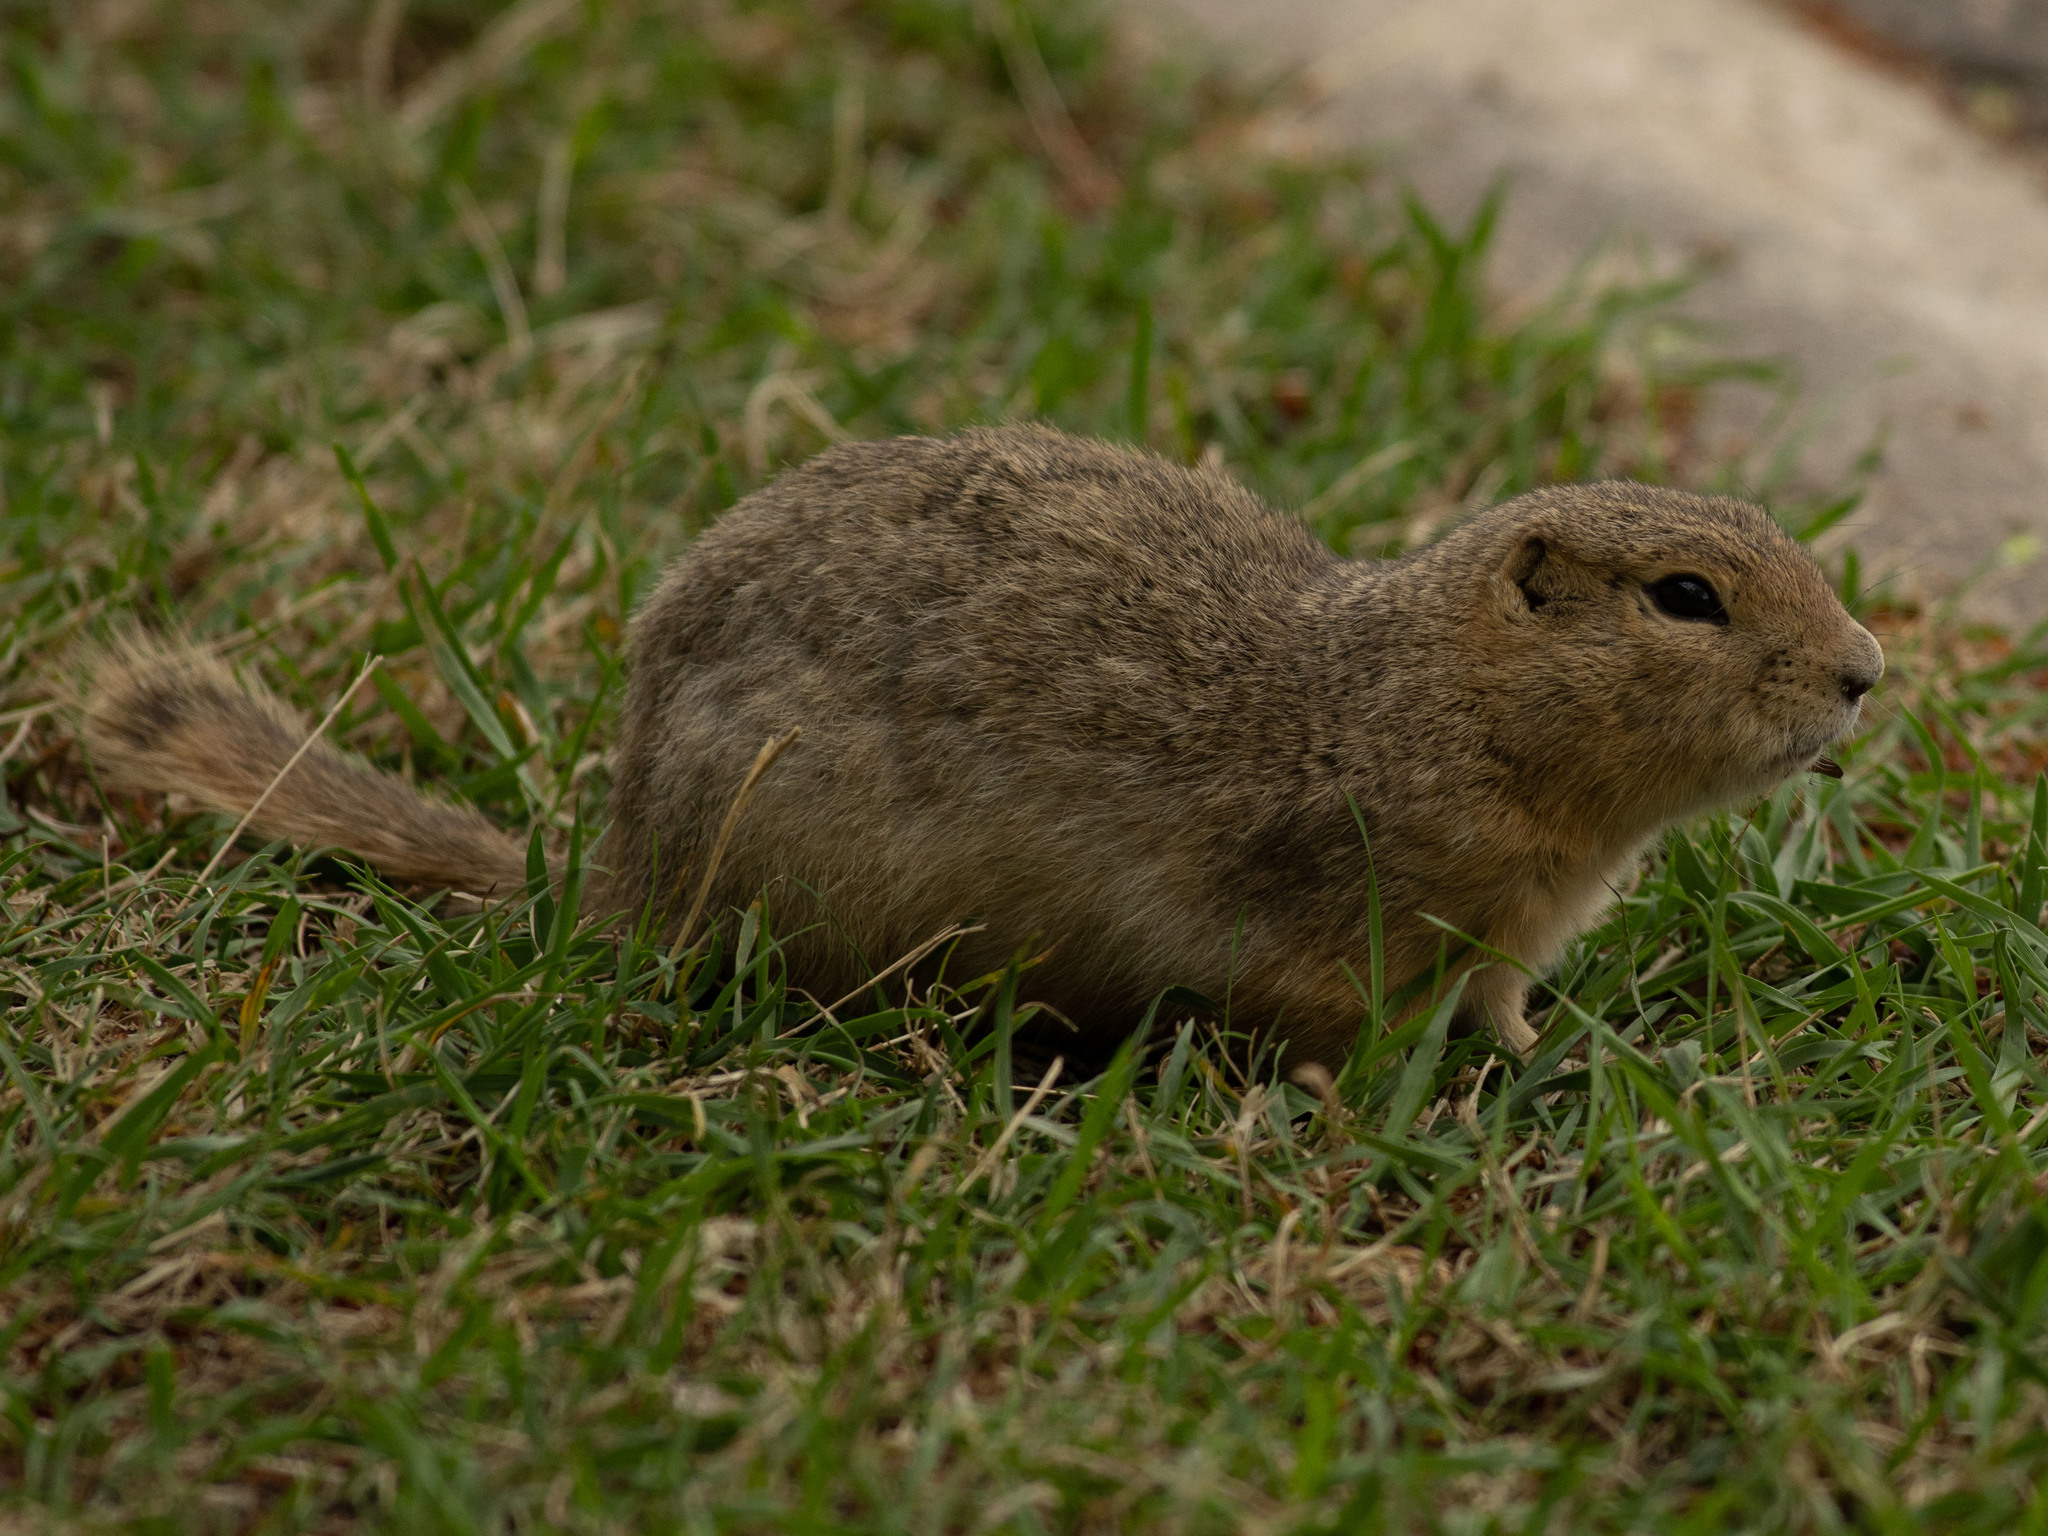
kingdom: Animalia
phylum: Chordata
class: Mammalia
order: Rodentia
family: Sciuridae
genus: Urocitellus
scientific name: Urocitellus richardsonii
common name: Richardson's ground squirrel
